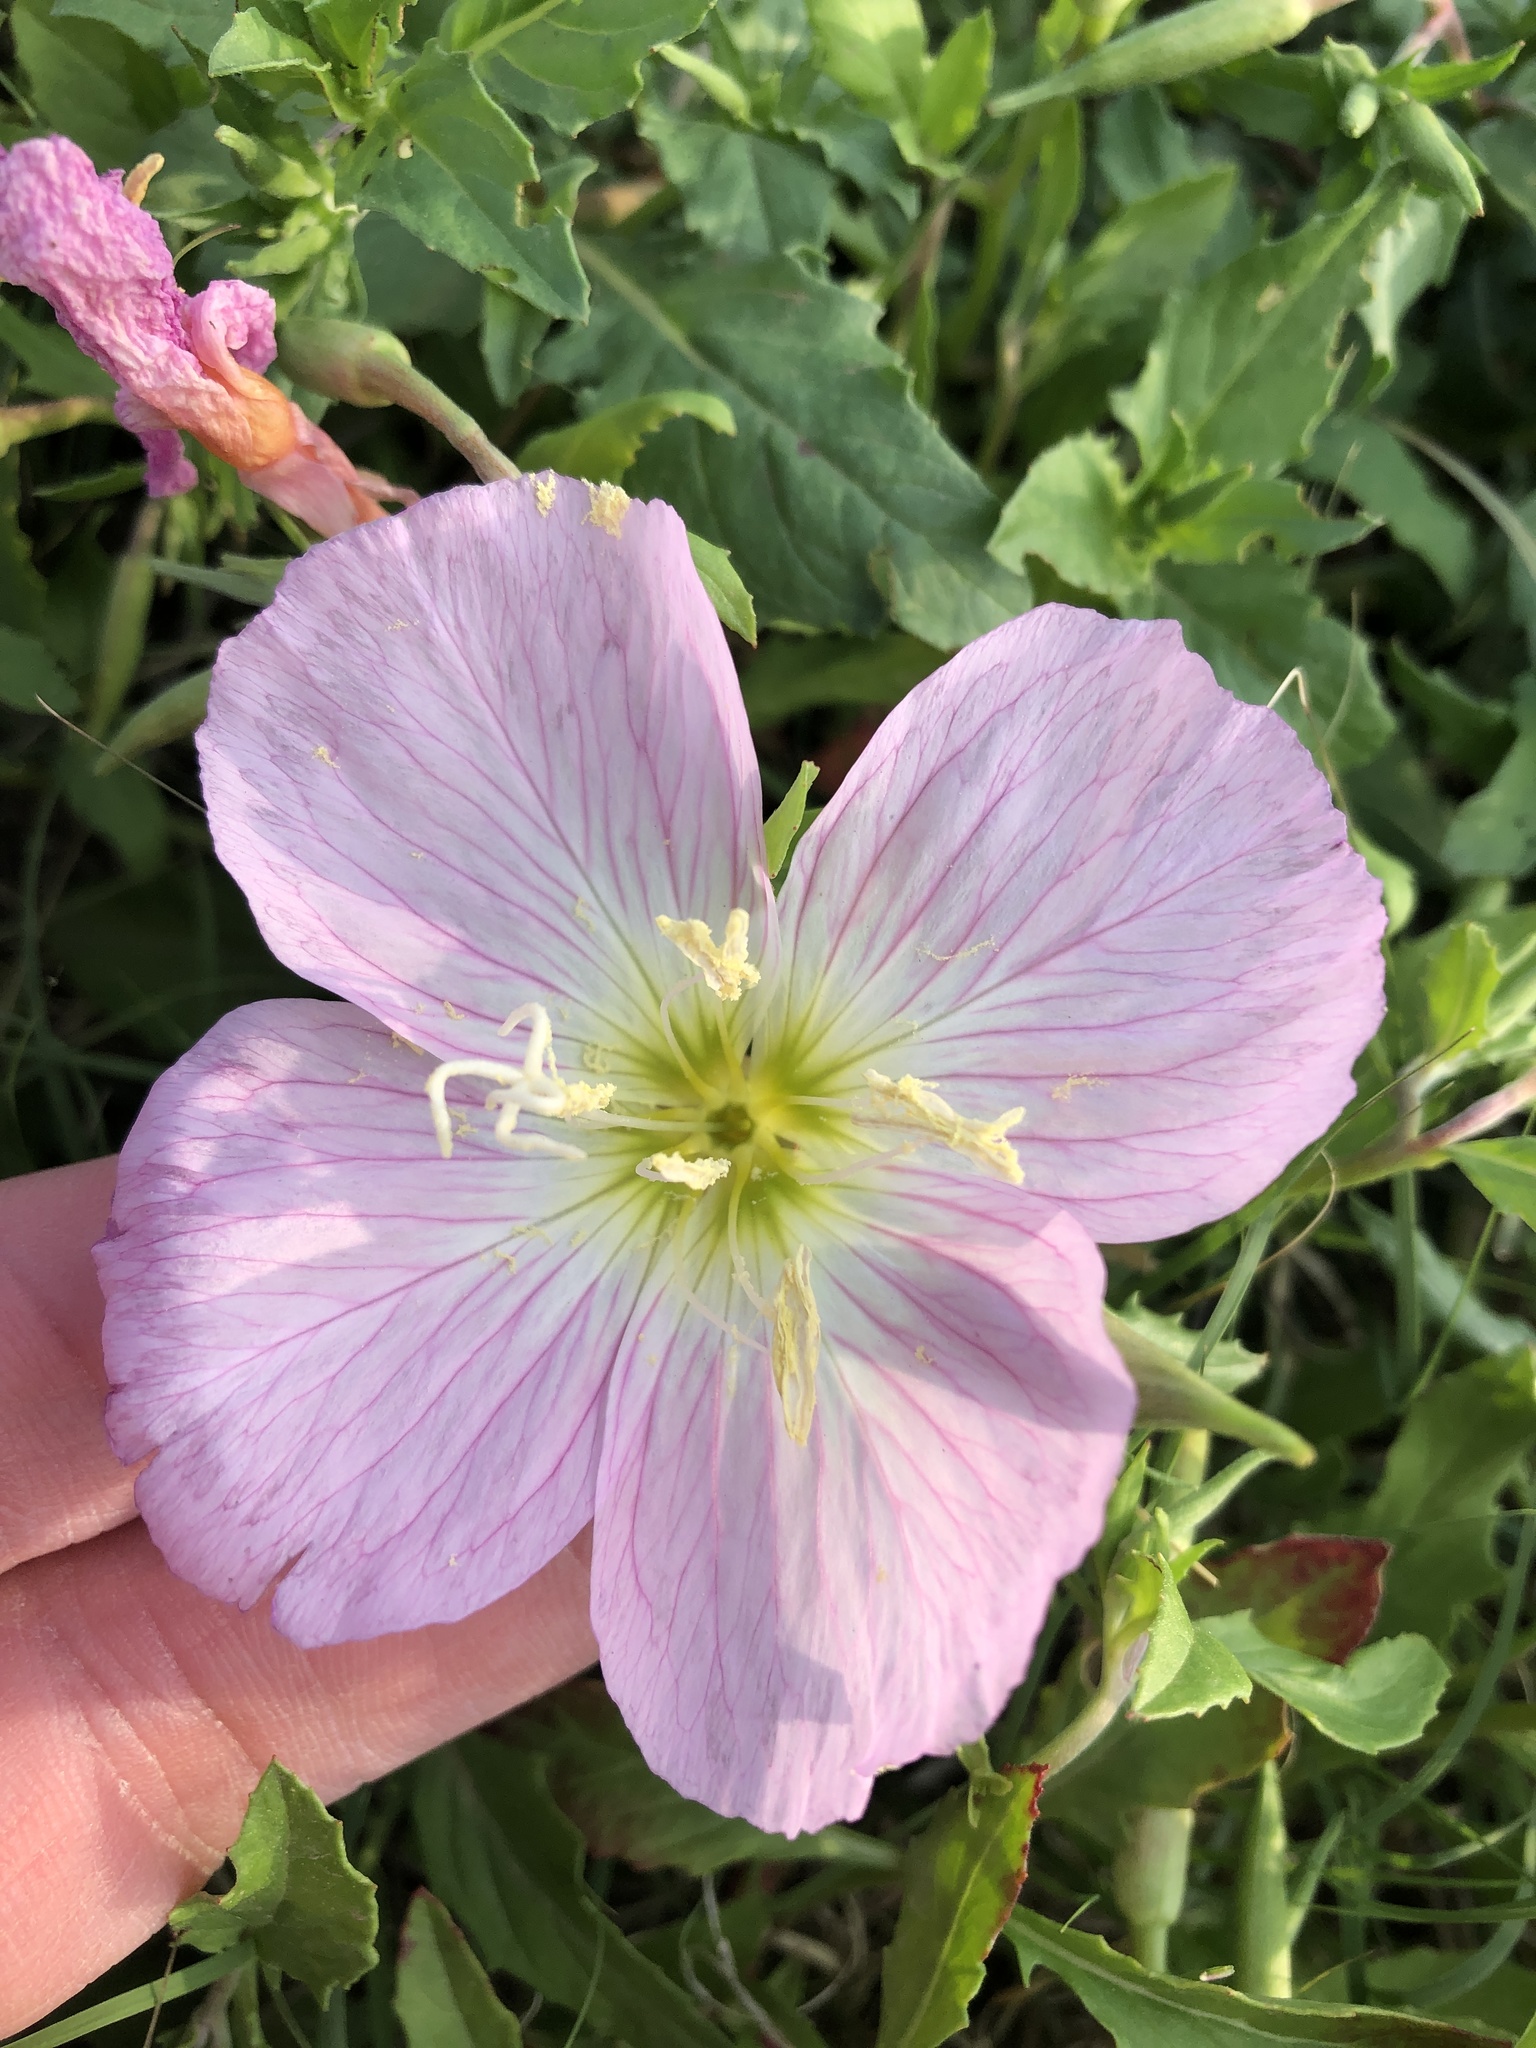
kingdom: Plantae
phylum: Tracheophyta
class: Magnoliopsida
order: Myrtales
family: Onagraceae
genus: Oenothera
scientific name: Oenothera speciosa
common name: White evening-primrose
